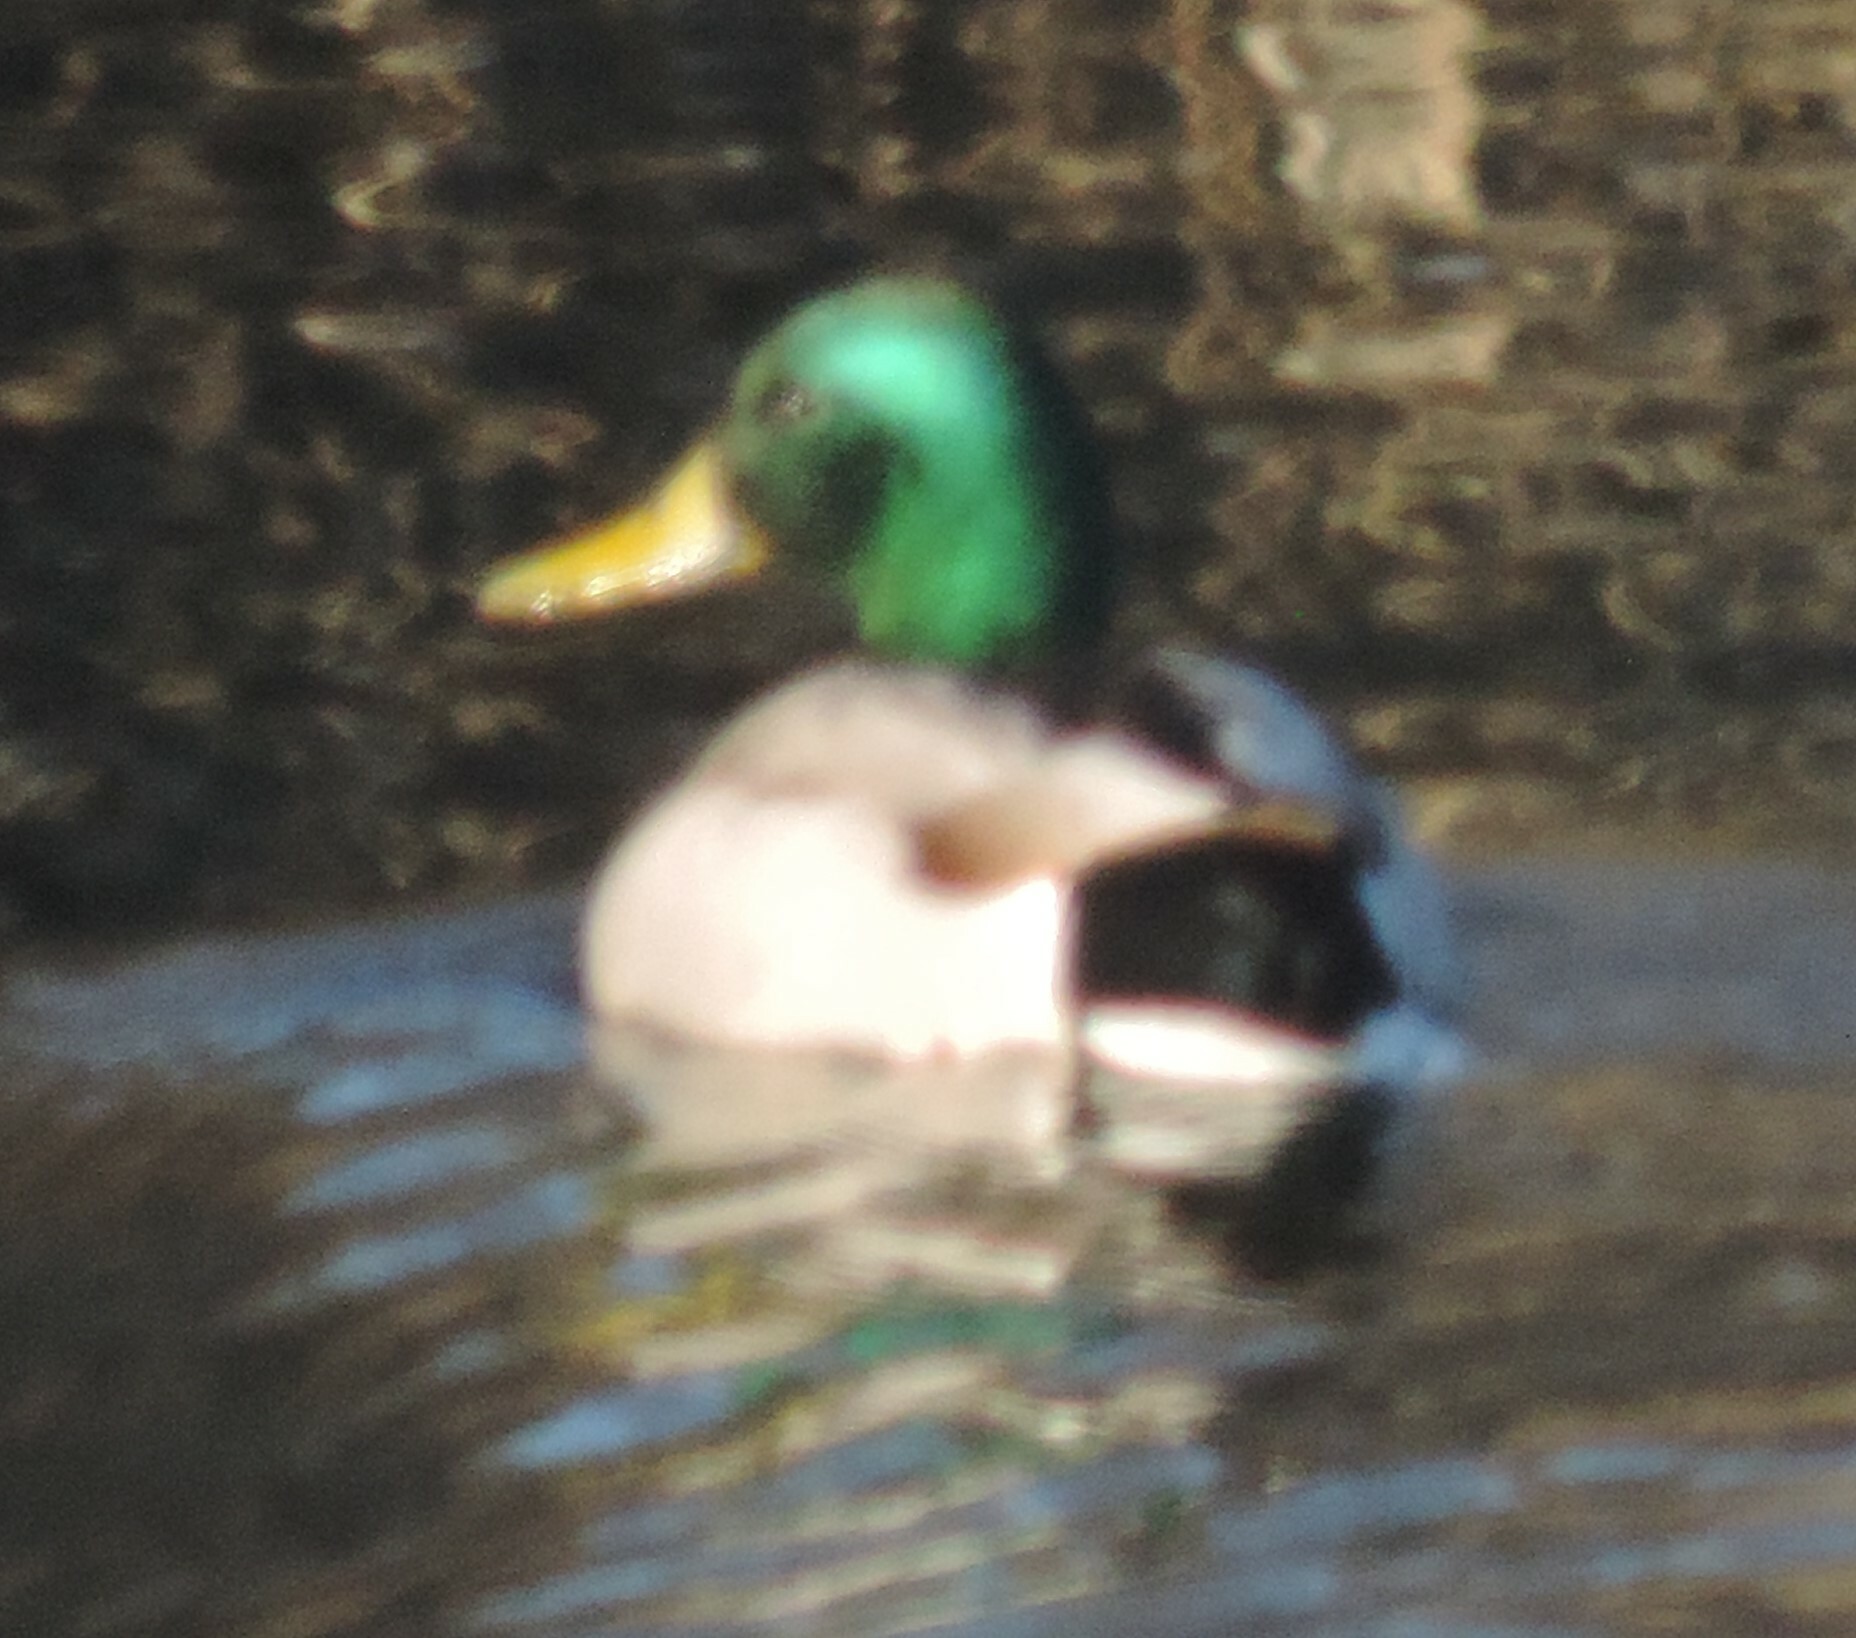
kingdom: Animalia
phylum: Chordata
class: Aves
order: Anseriformes
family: Anatidae
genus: Anas
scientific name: Anas platyrhynchos
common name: Mallard
